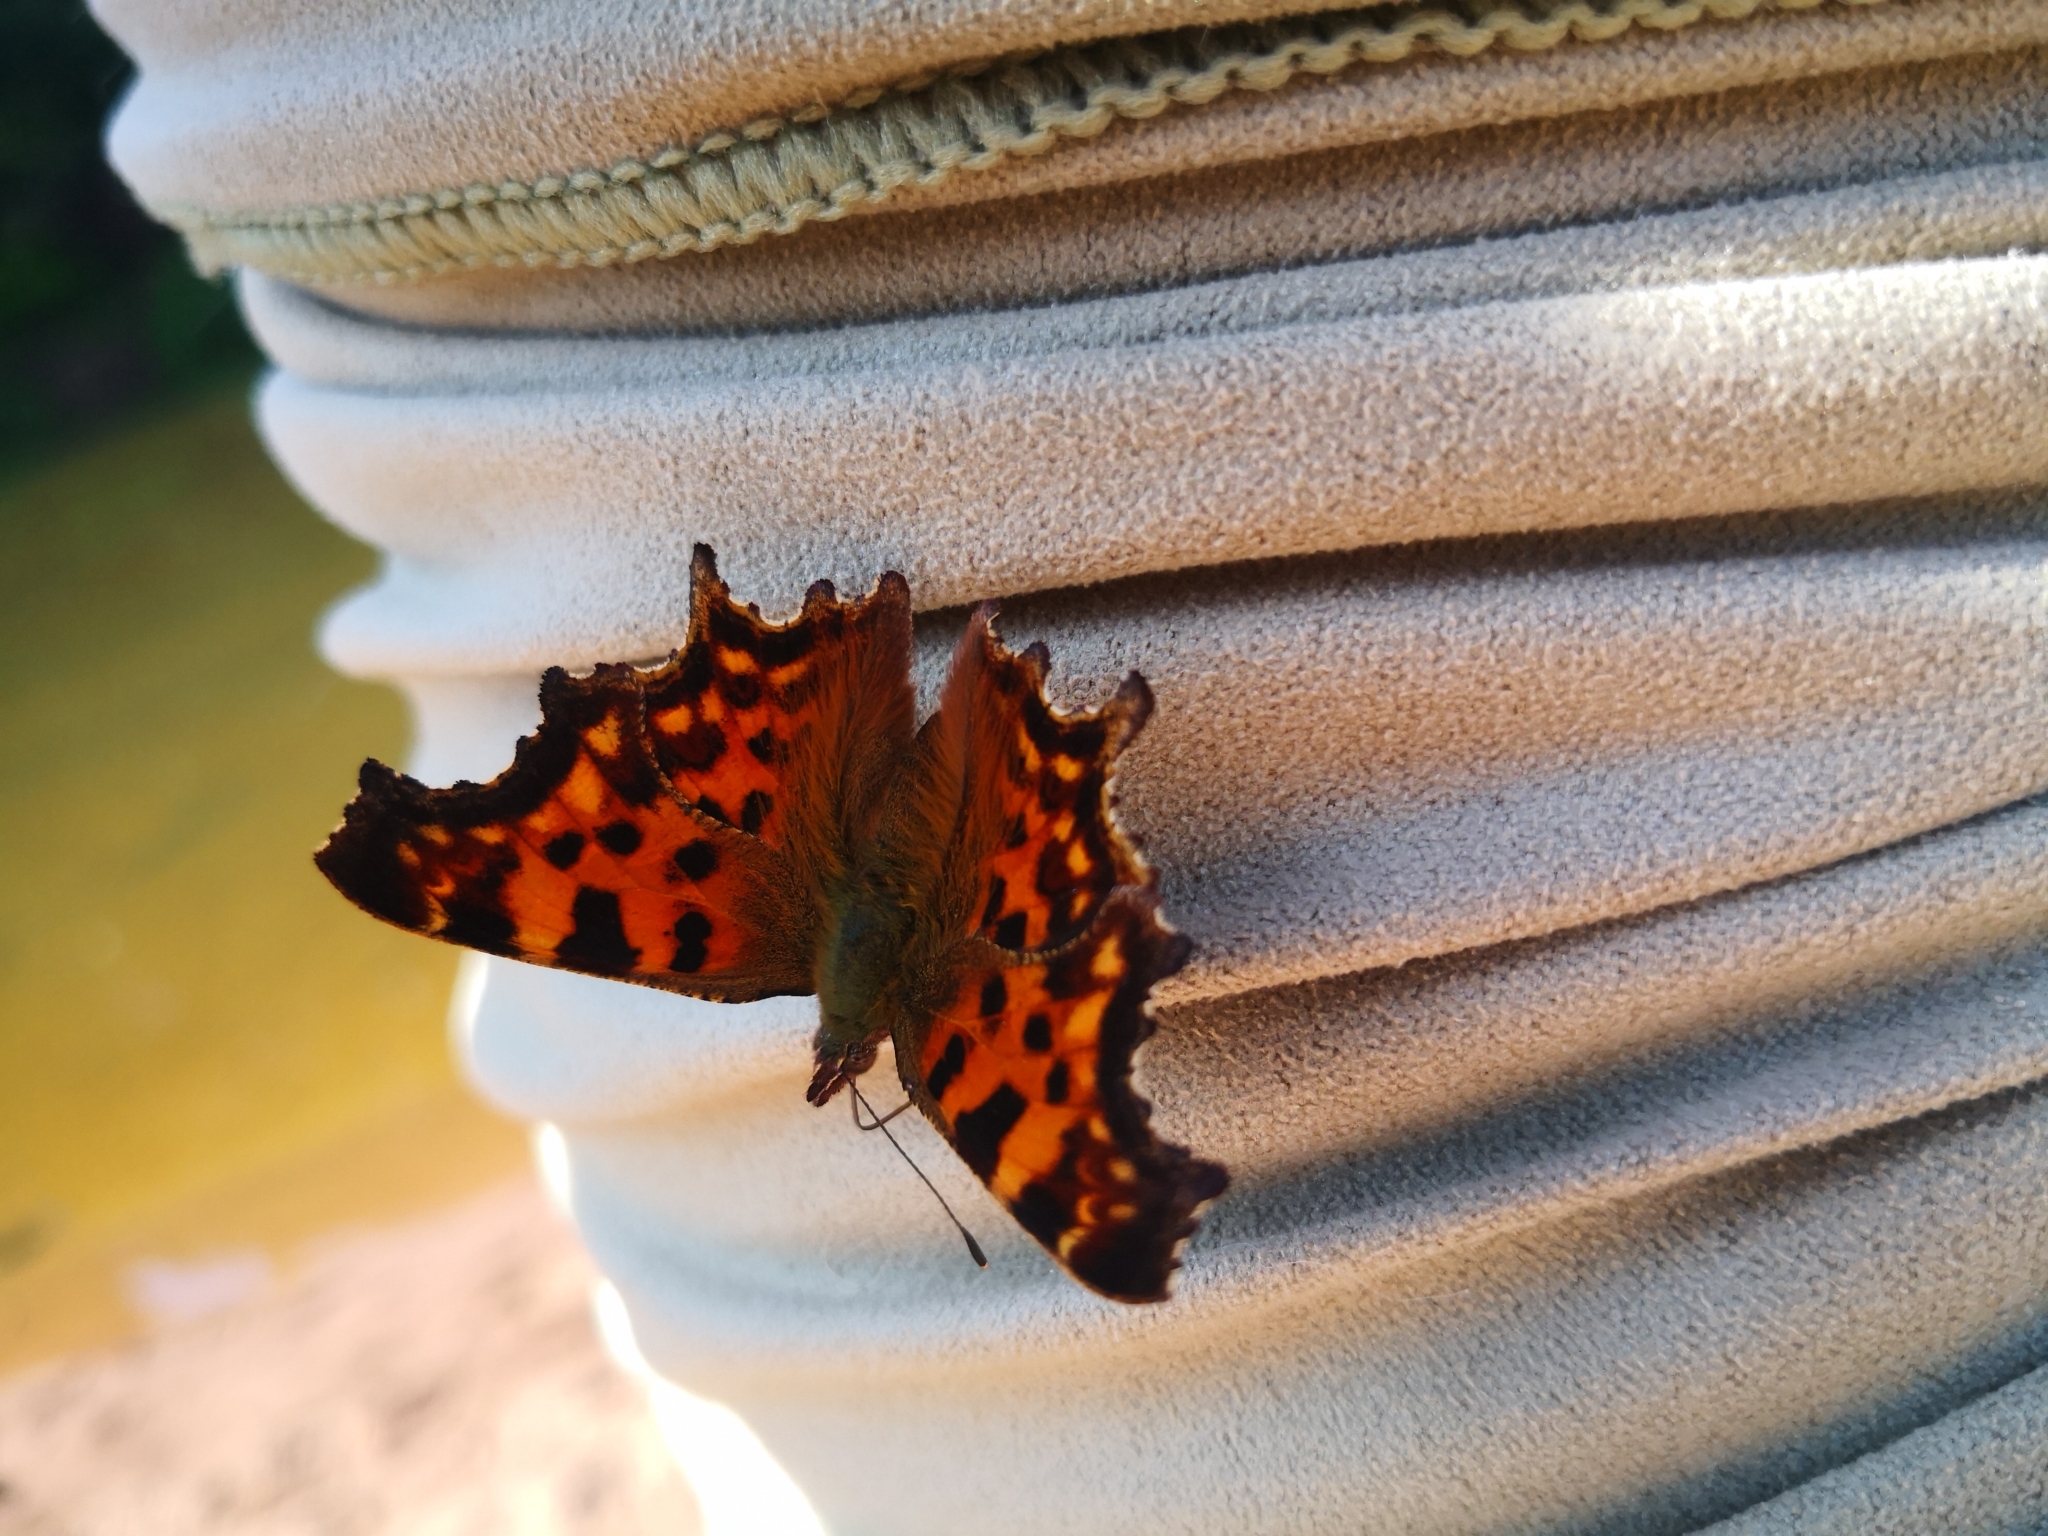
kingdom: Animalia
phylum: Arthropoda
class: Insecta
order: Lepidoptera
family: Nymphalidae
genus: Polygonia
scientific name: Polygonia c-album
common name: Comma
